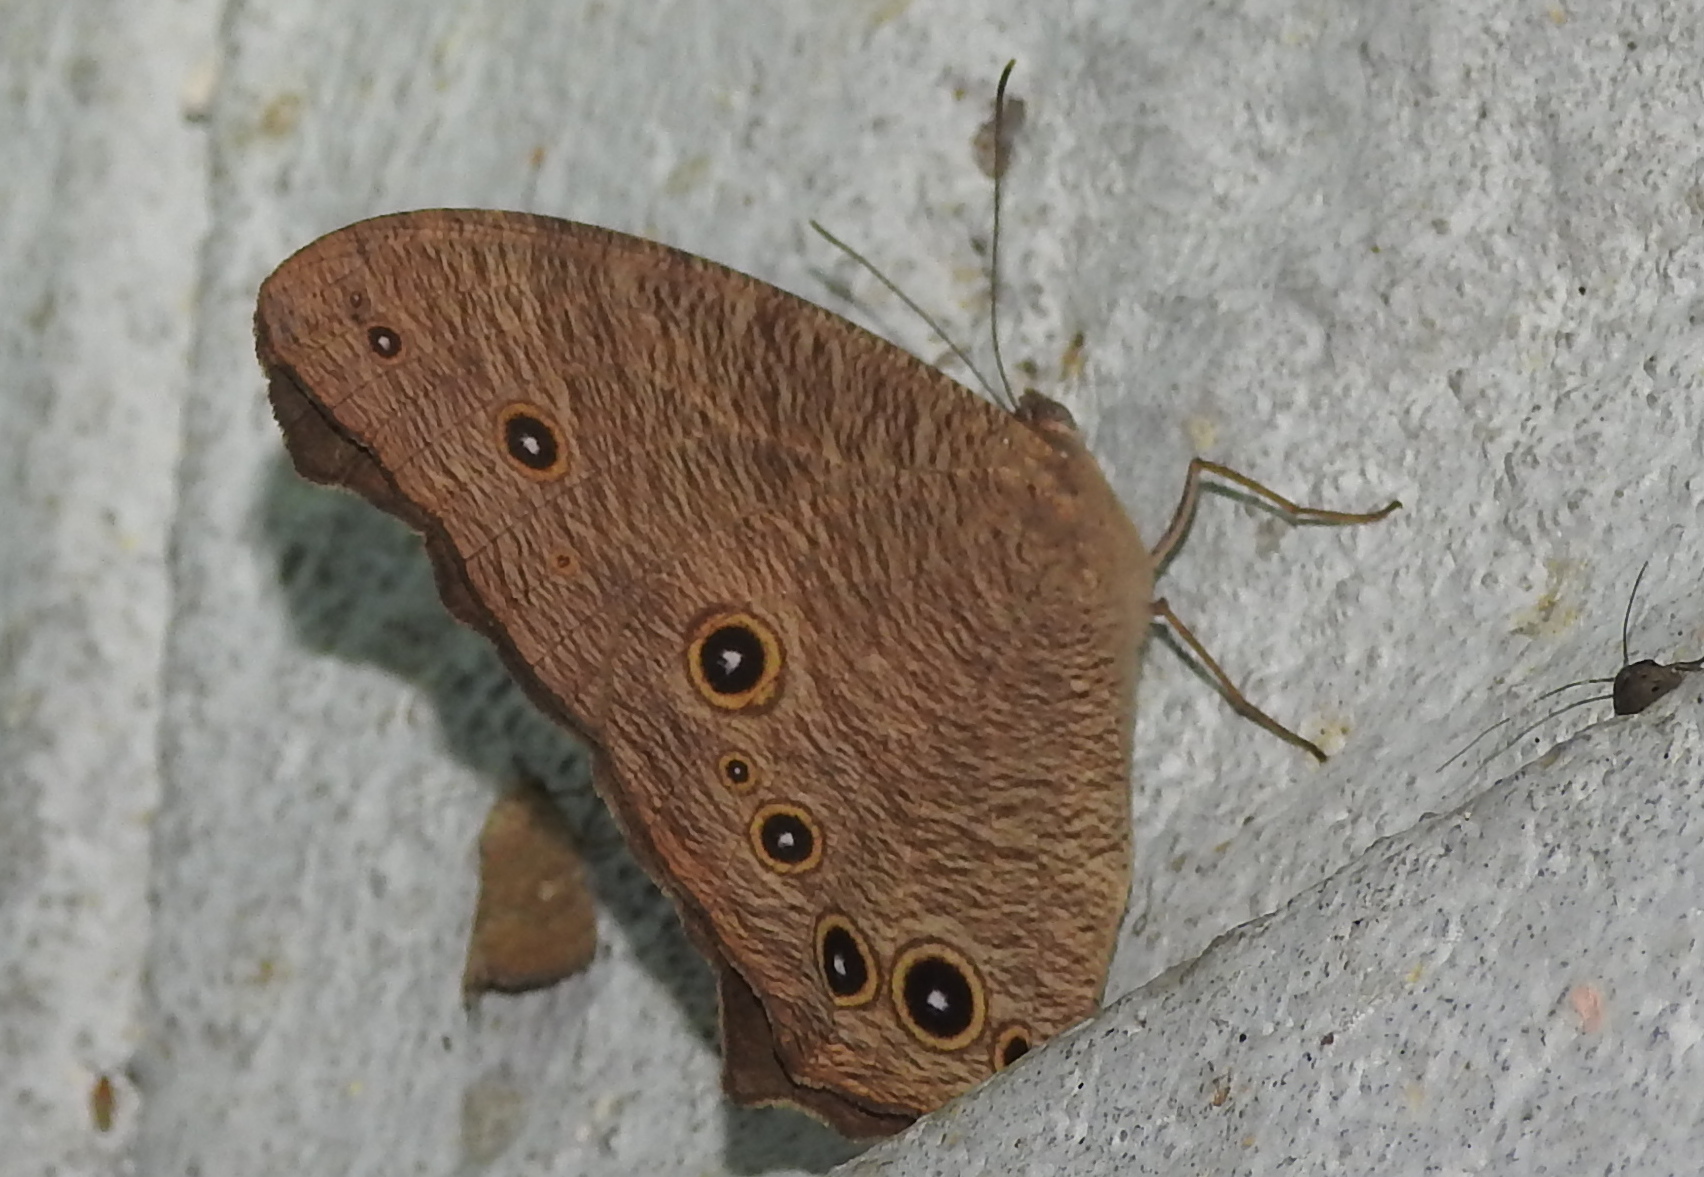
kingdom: Animalia
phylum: Arthropoda
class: Insecta
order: Lepidoptera
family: Nymphalidae
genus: Melanitis
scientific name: Melanitis leda
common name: Twilight brown
